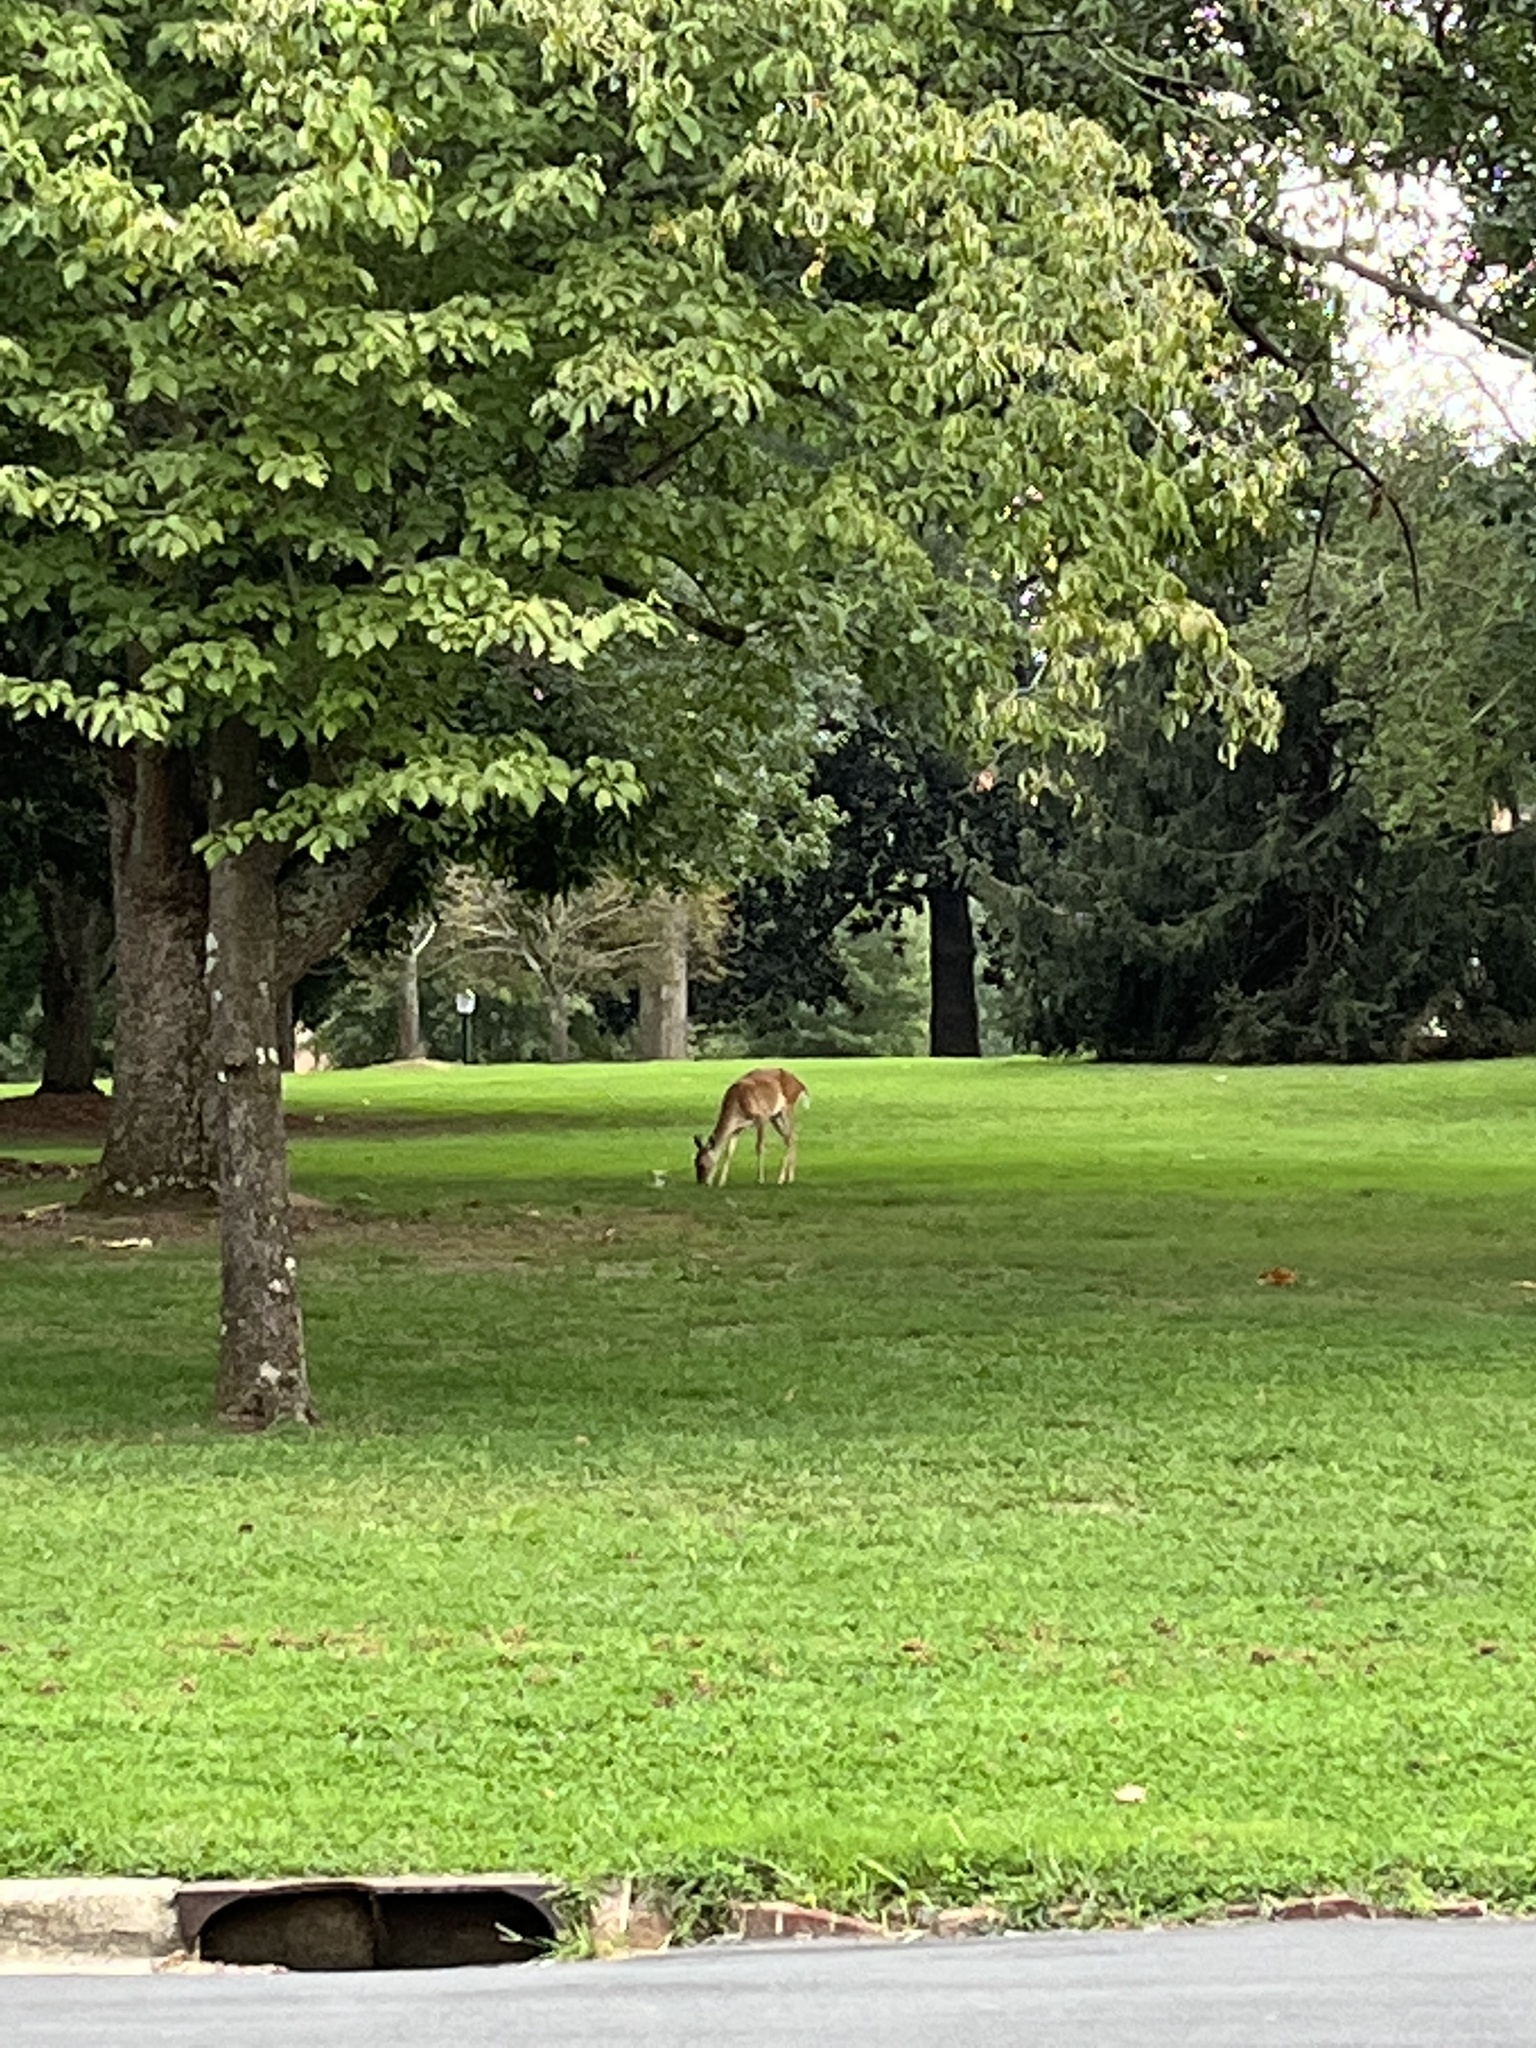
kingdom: Animalia
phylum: Chordata
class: Mammalia
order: Artiodactyla
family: Cervidae
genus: Odocoileus
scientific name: Odocoileus virginianus
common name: White-tailed deer
